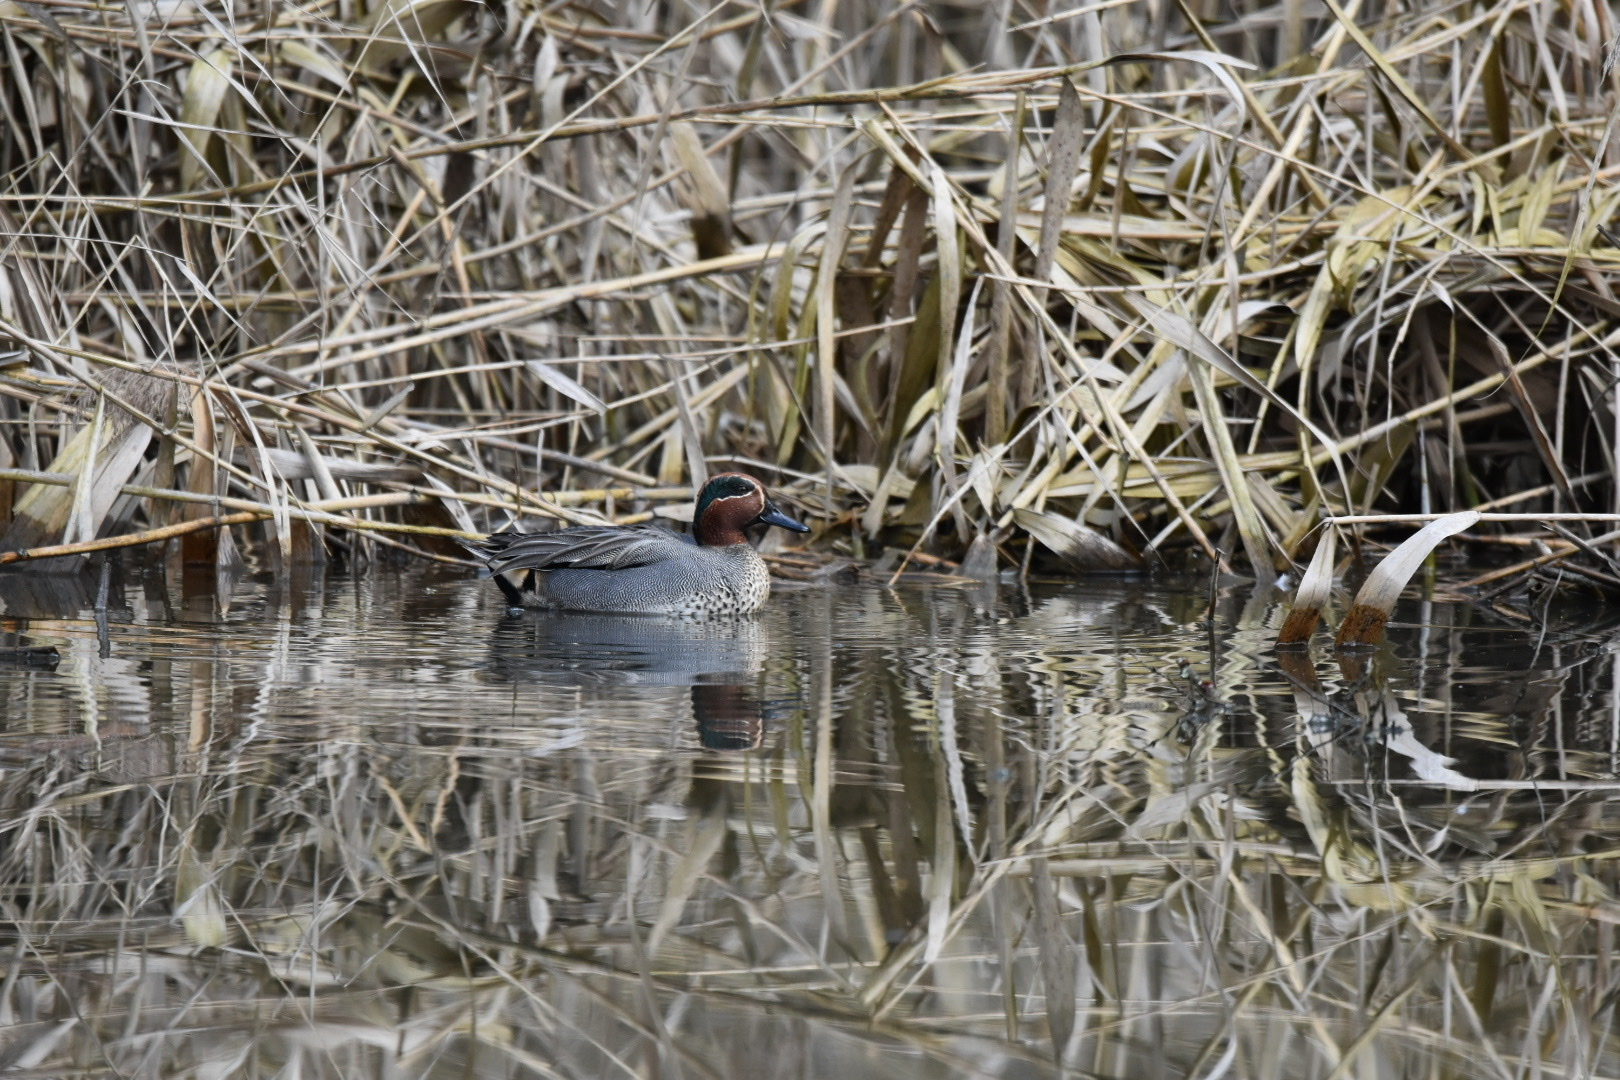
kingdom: Animalia
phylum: Chordata
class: Aves
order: Anseriformes
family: Anatidae
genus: Anas
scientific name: Anas crecca
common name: Eurasian teal
